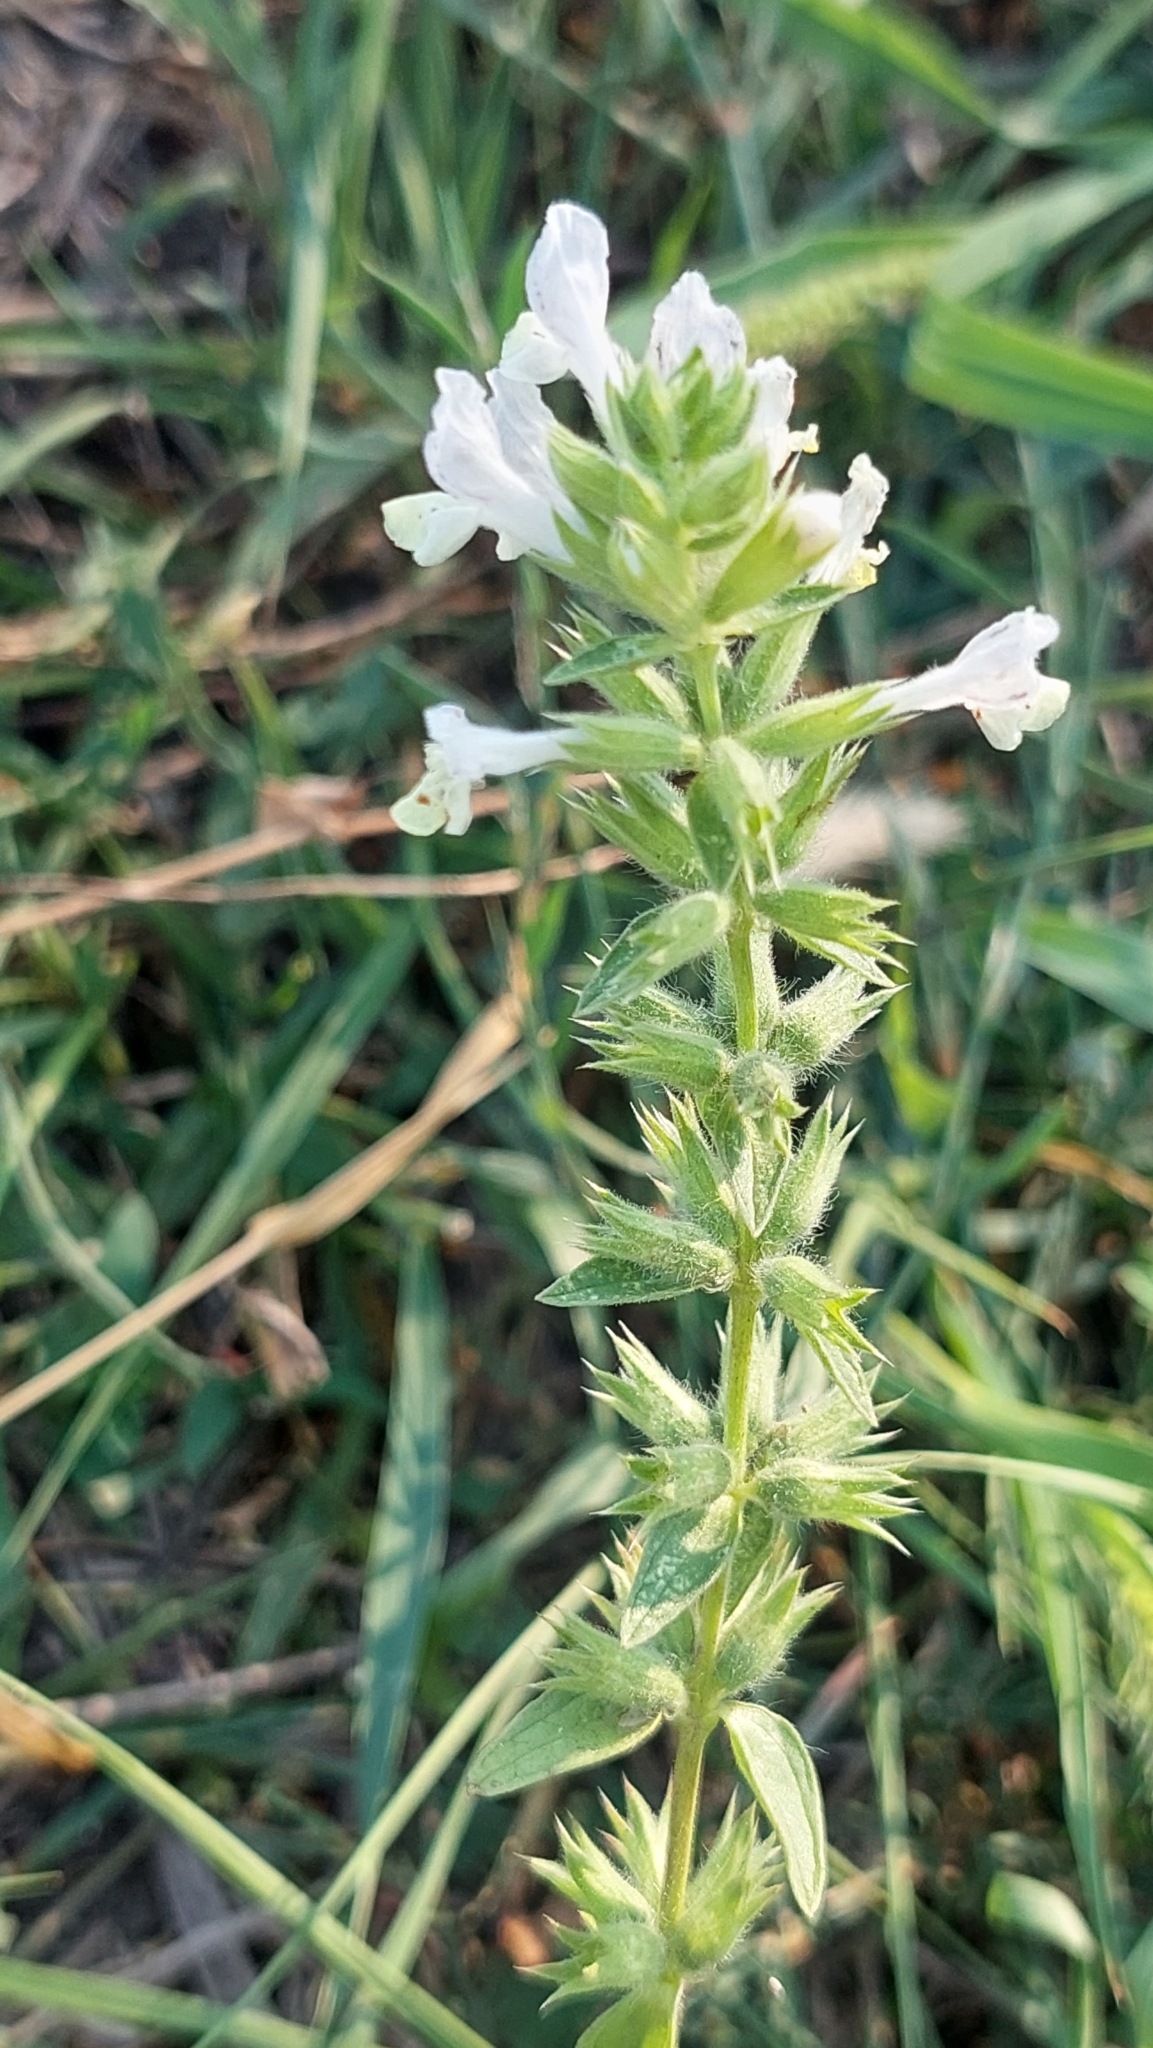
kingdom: Plantae
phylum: Tracheophyta
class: Magnoliopsida
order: Lamiales
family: Lamiaceae
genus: Stachys
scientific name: Stachys annua
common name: Annual yellow-woundwort
